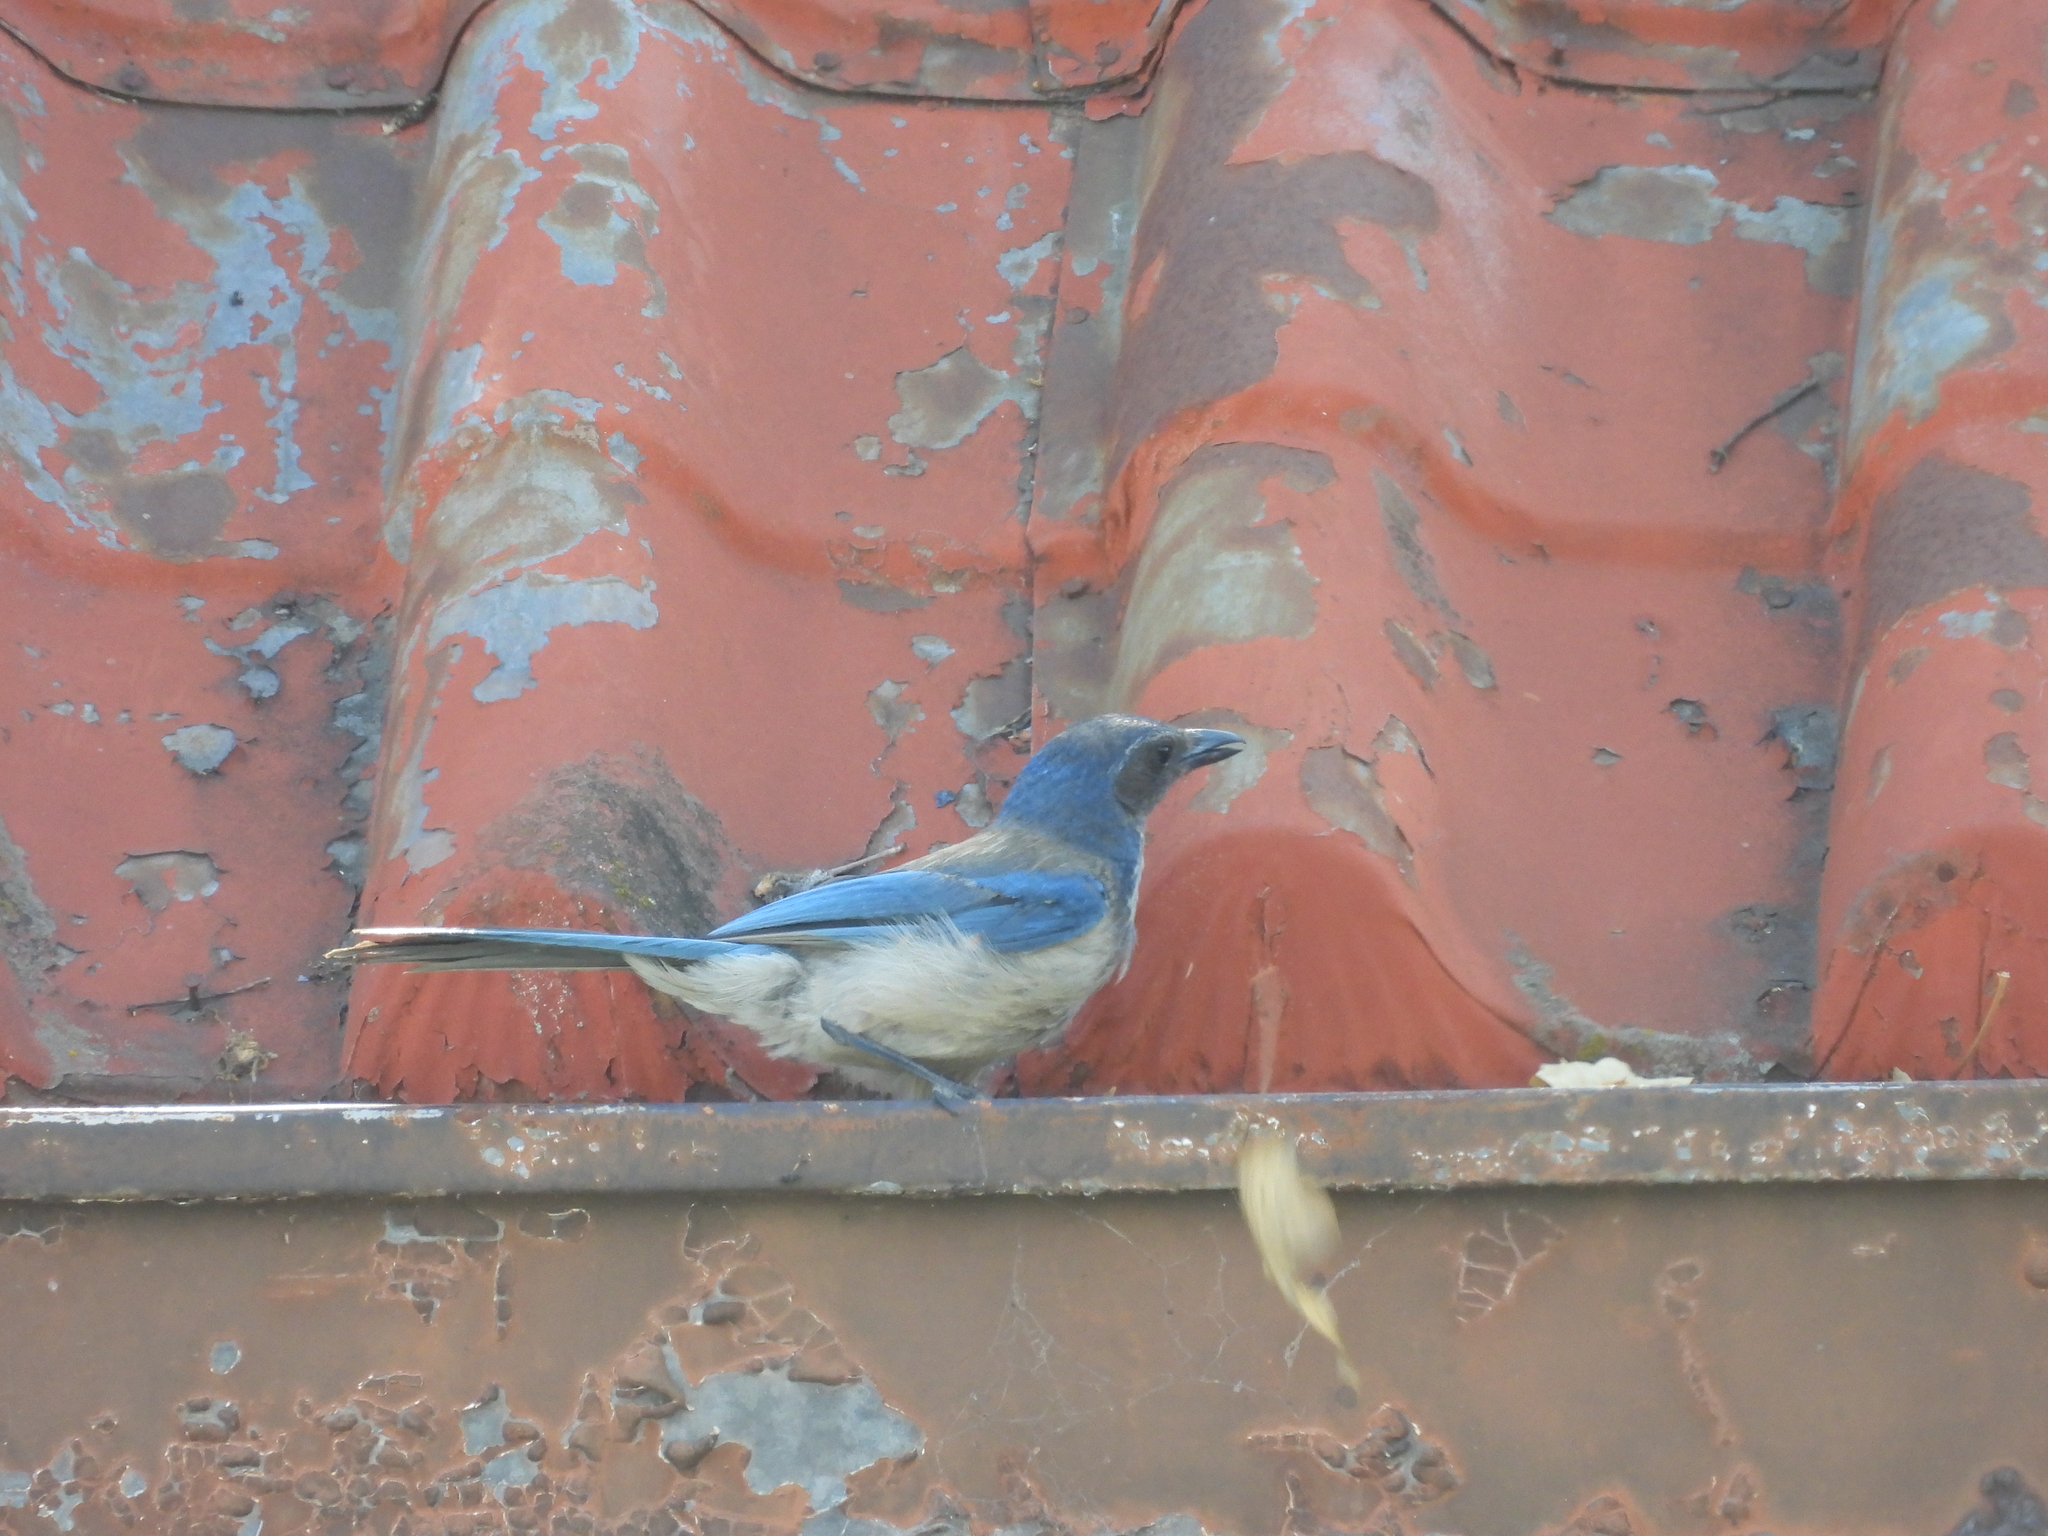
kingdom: Animalia
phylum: Chordata
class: Aves
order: Passeriformes
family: Corvidae
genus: Aphelocoma
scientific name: Aphelocoma californica
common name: California scrub-jay
